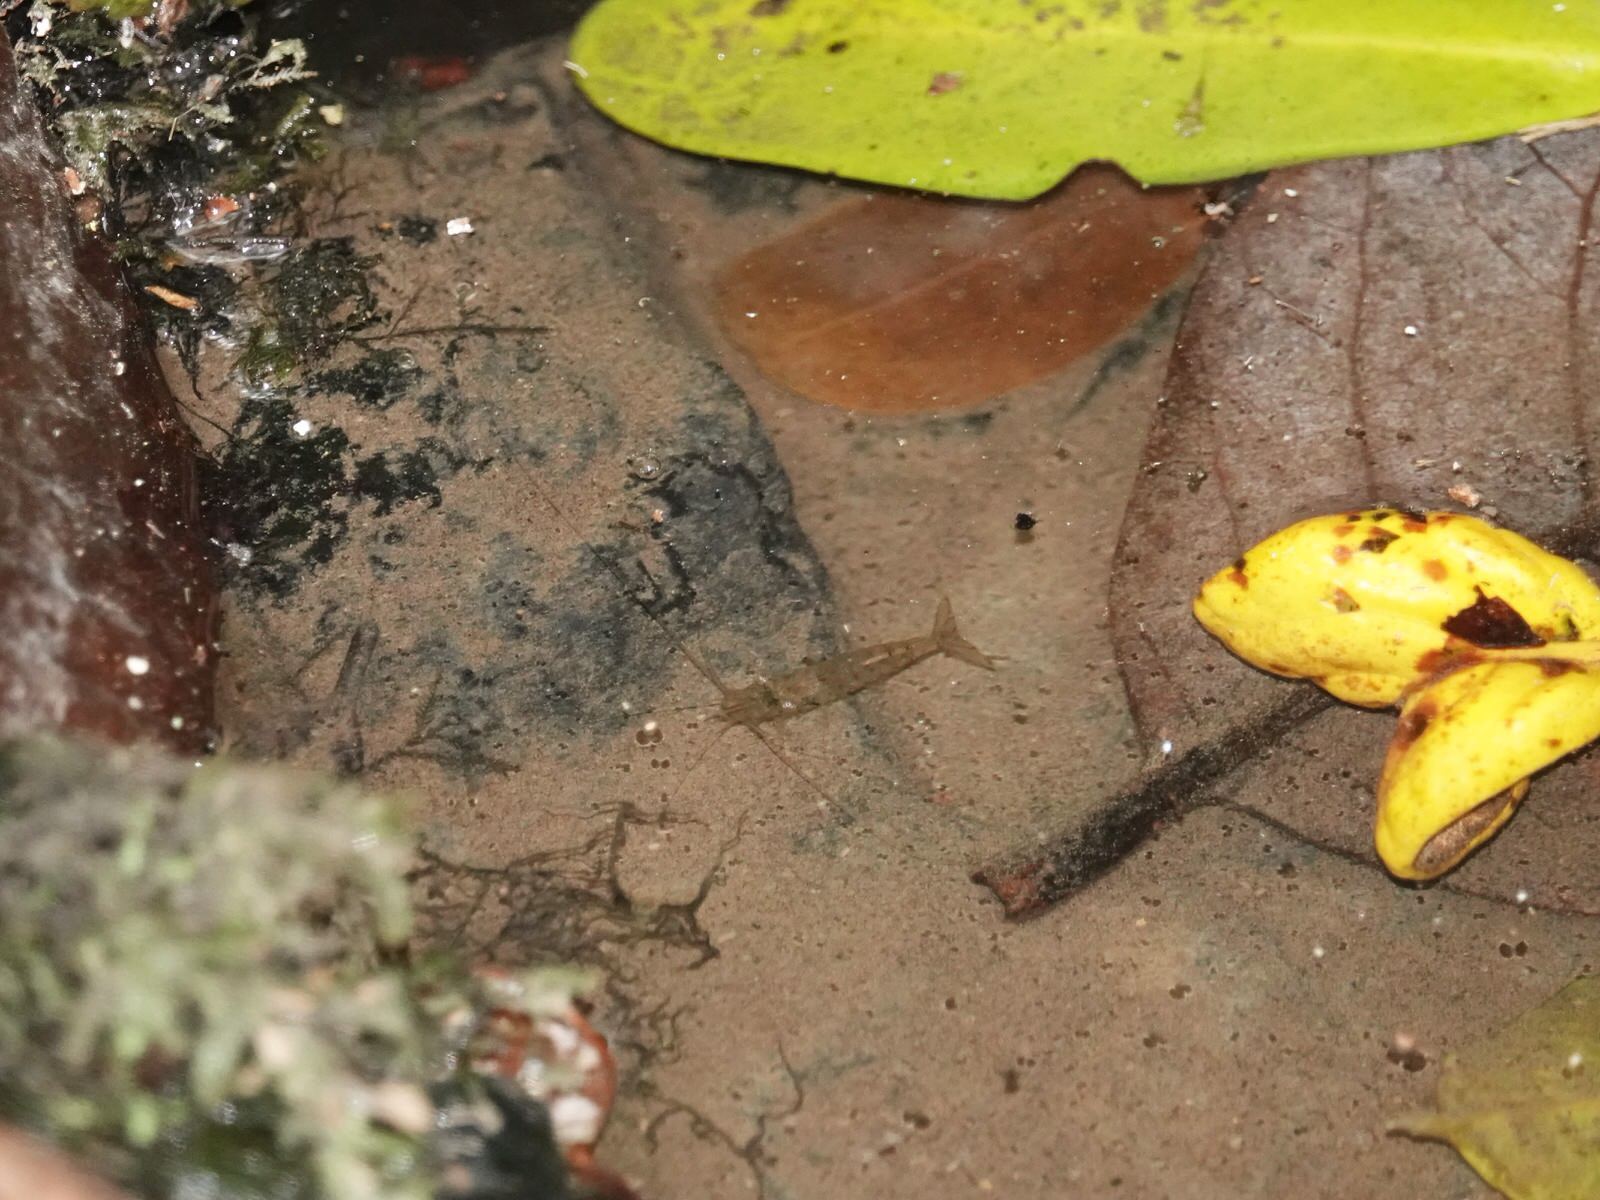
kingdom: Animalia
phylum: Arthropoda
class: Malacostraca
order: Decapoda
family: Atyidae
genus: Paratya
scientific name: Paratya curvirostris
